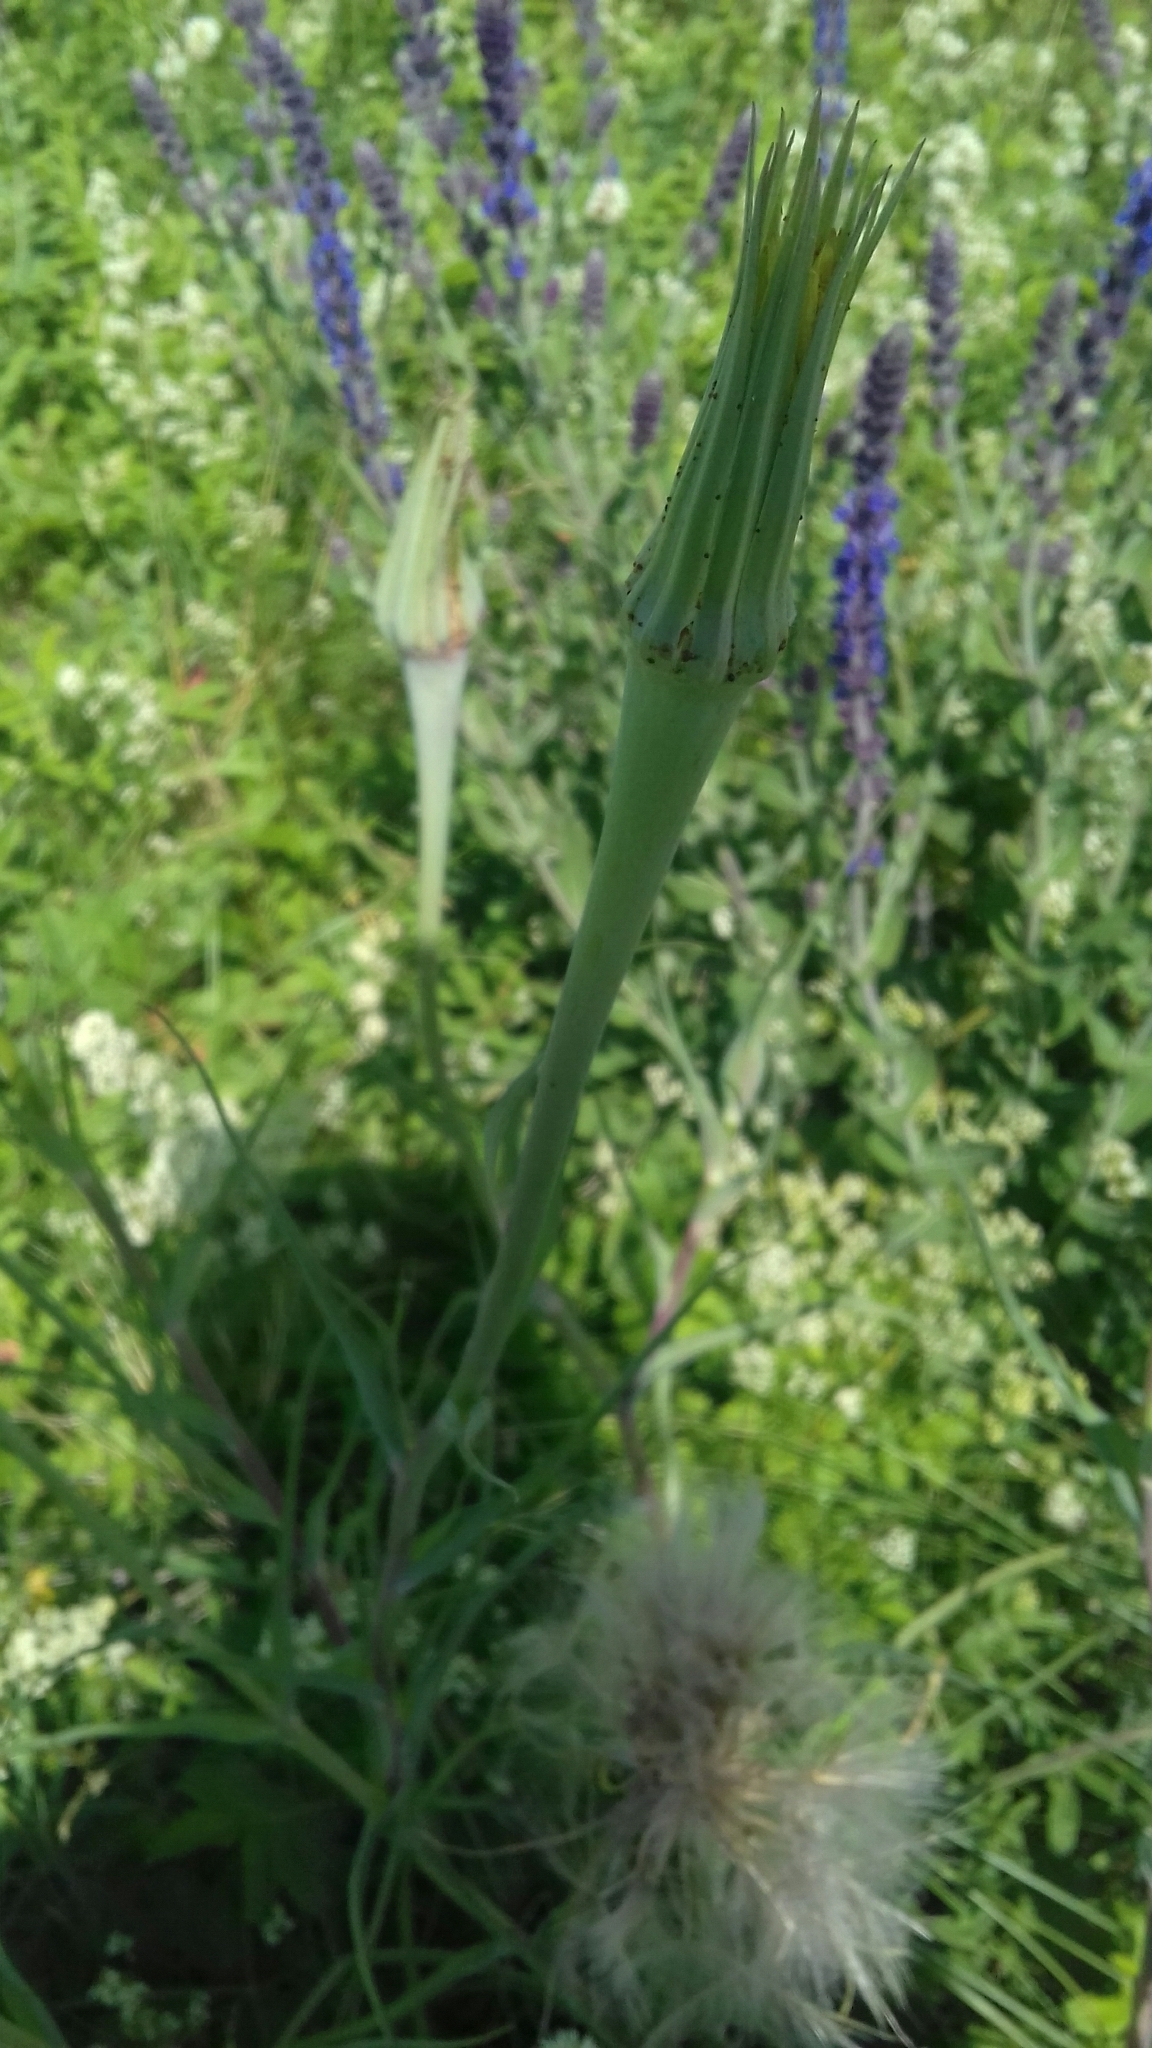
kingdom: Plantae
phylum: Tracheophyta
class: Magnoliopsida
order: Asterales
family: Asteraceae
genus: Tragopogon
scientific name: Tragopogon dubius
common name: Yellow salsify
